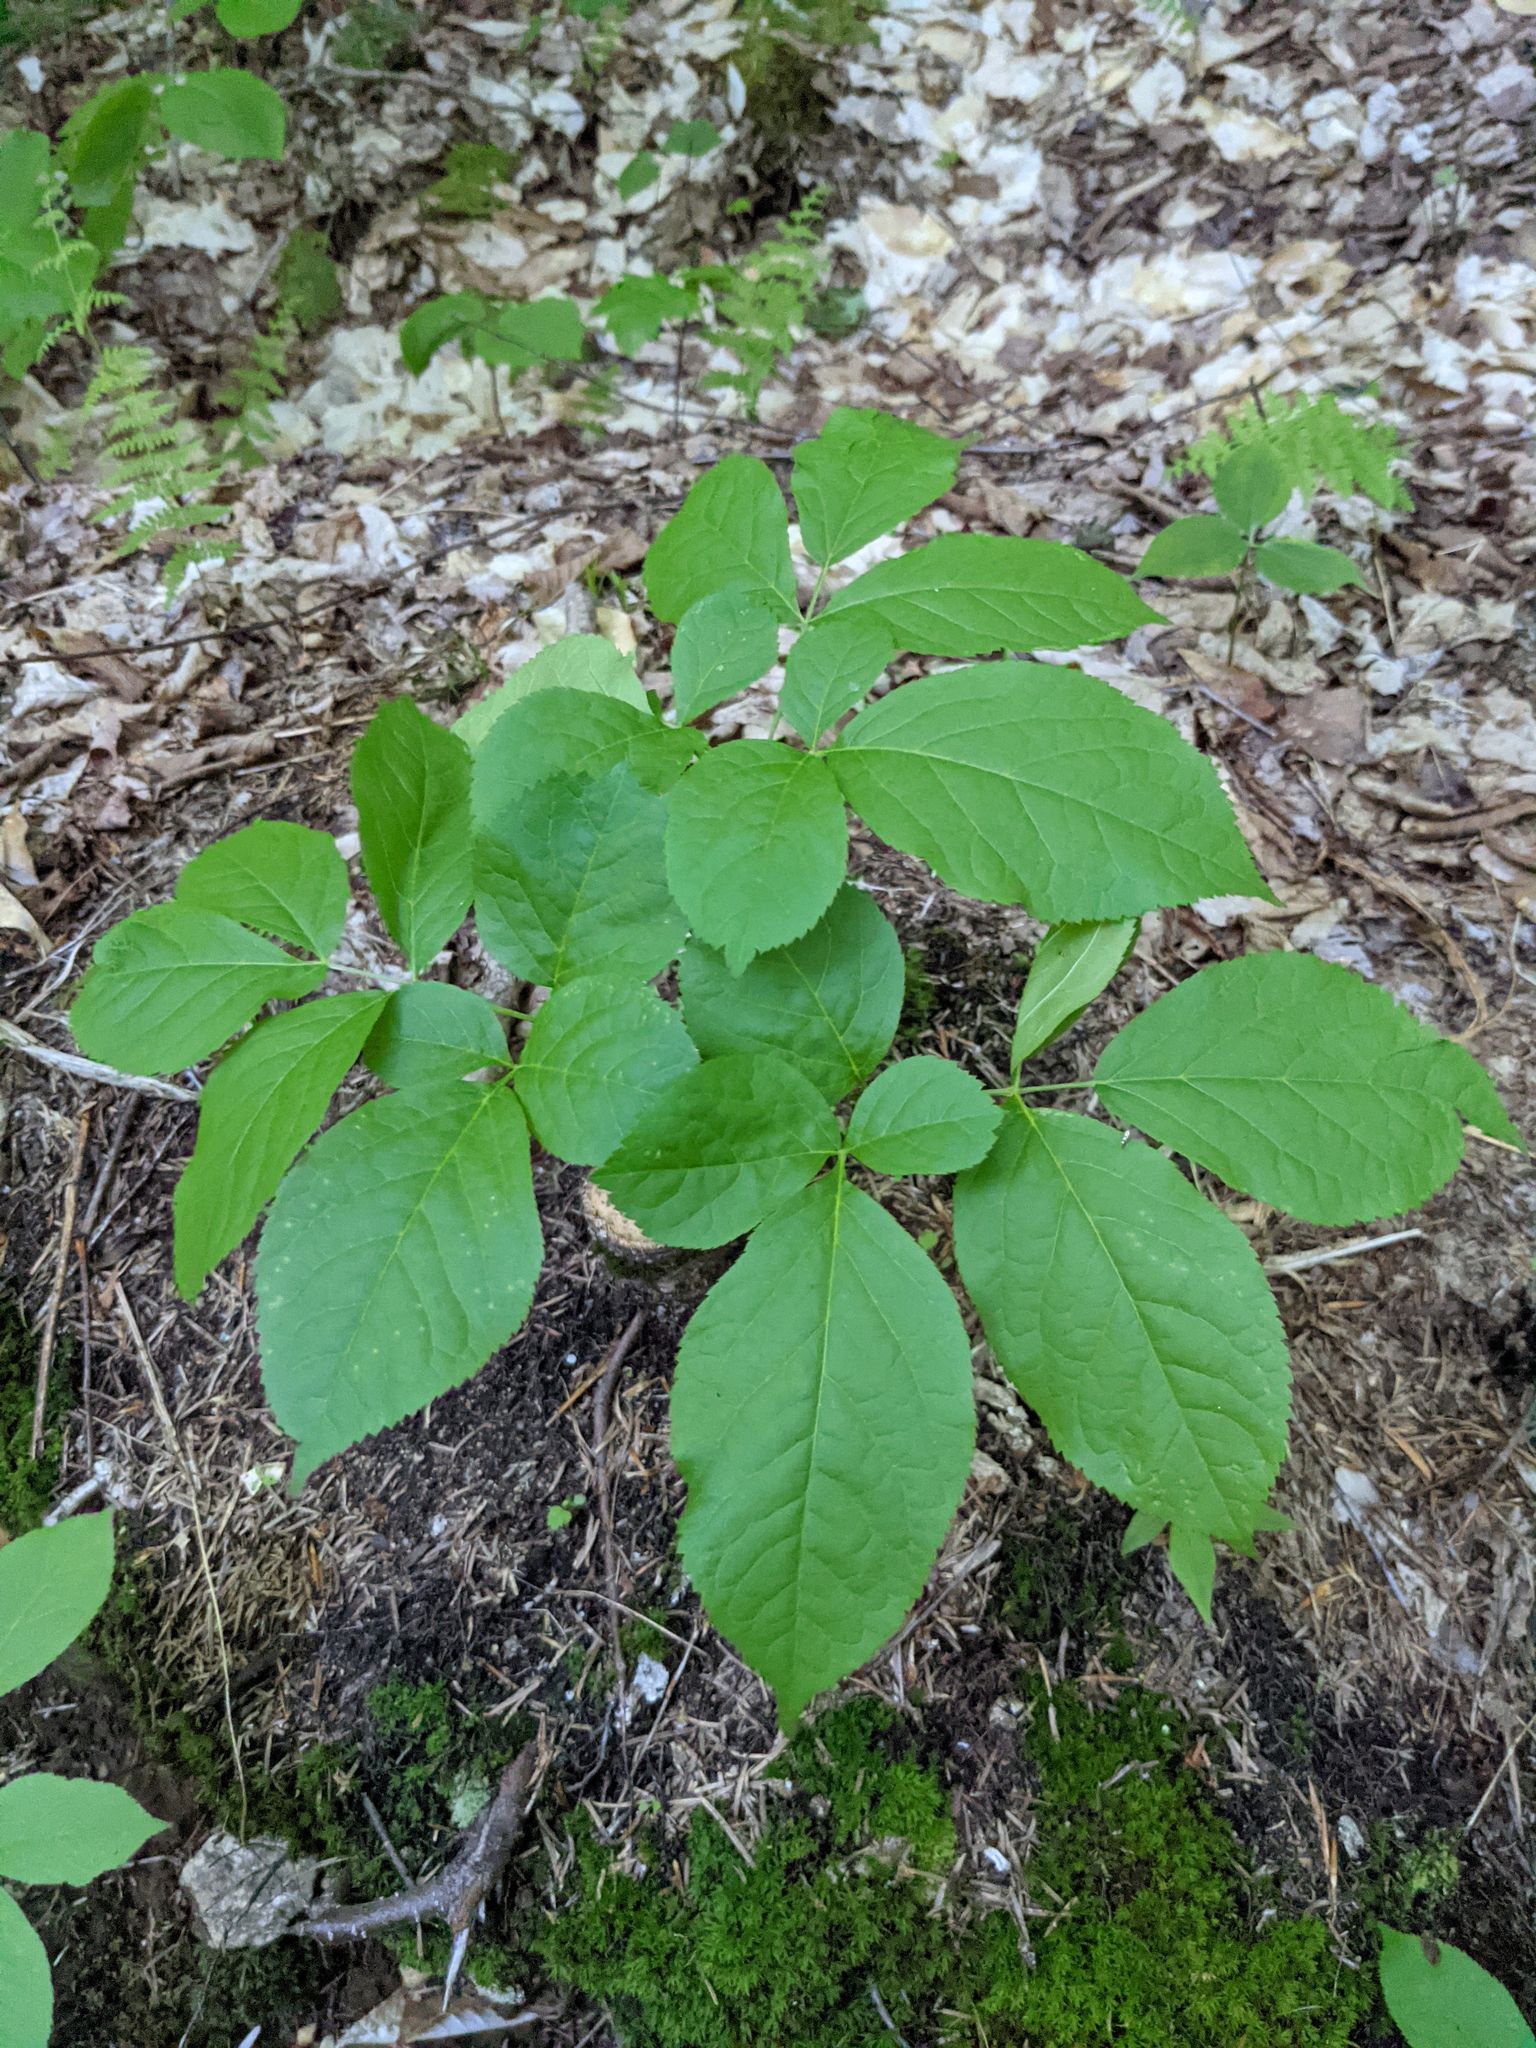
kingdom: Plantae
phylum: Tracheophyta
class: Magnoliopsida
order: Apiales
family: Araliaceae
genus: Aralia
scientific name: Aralia nudicaulis
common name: Wild sarsaparilla
